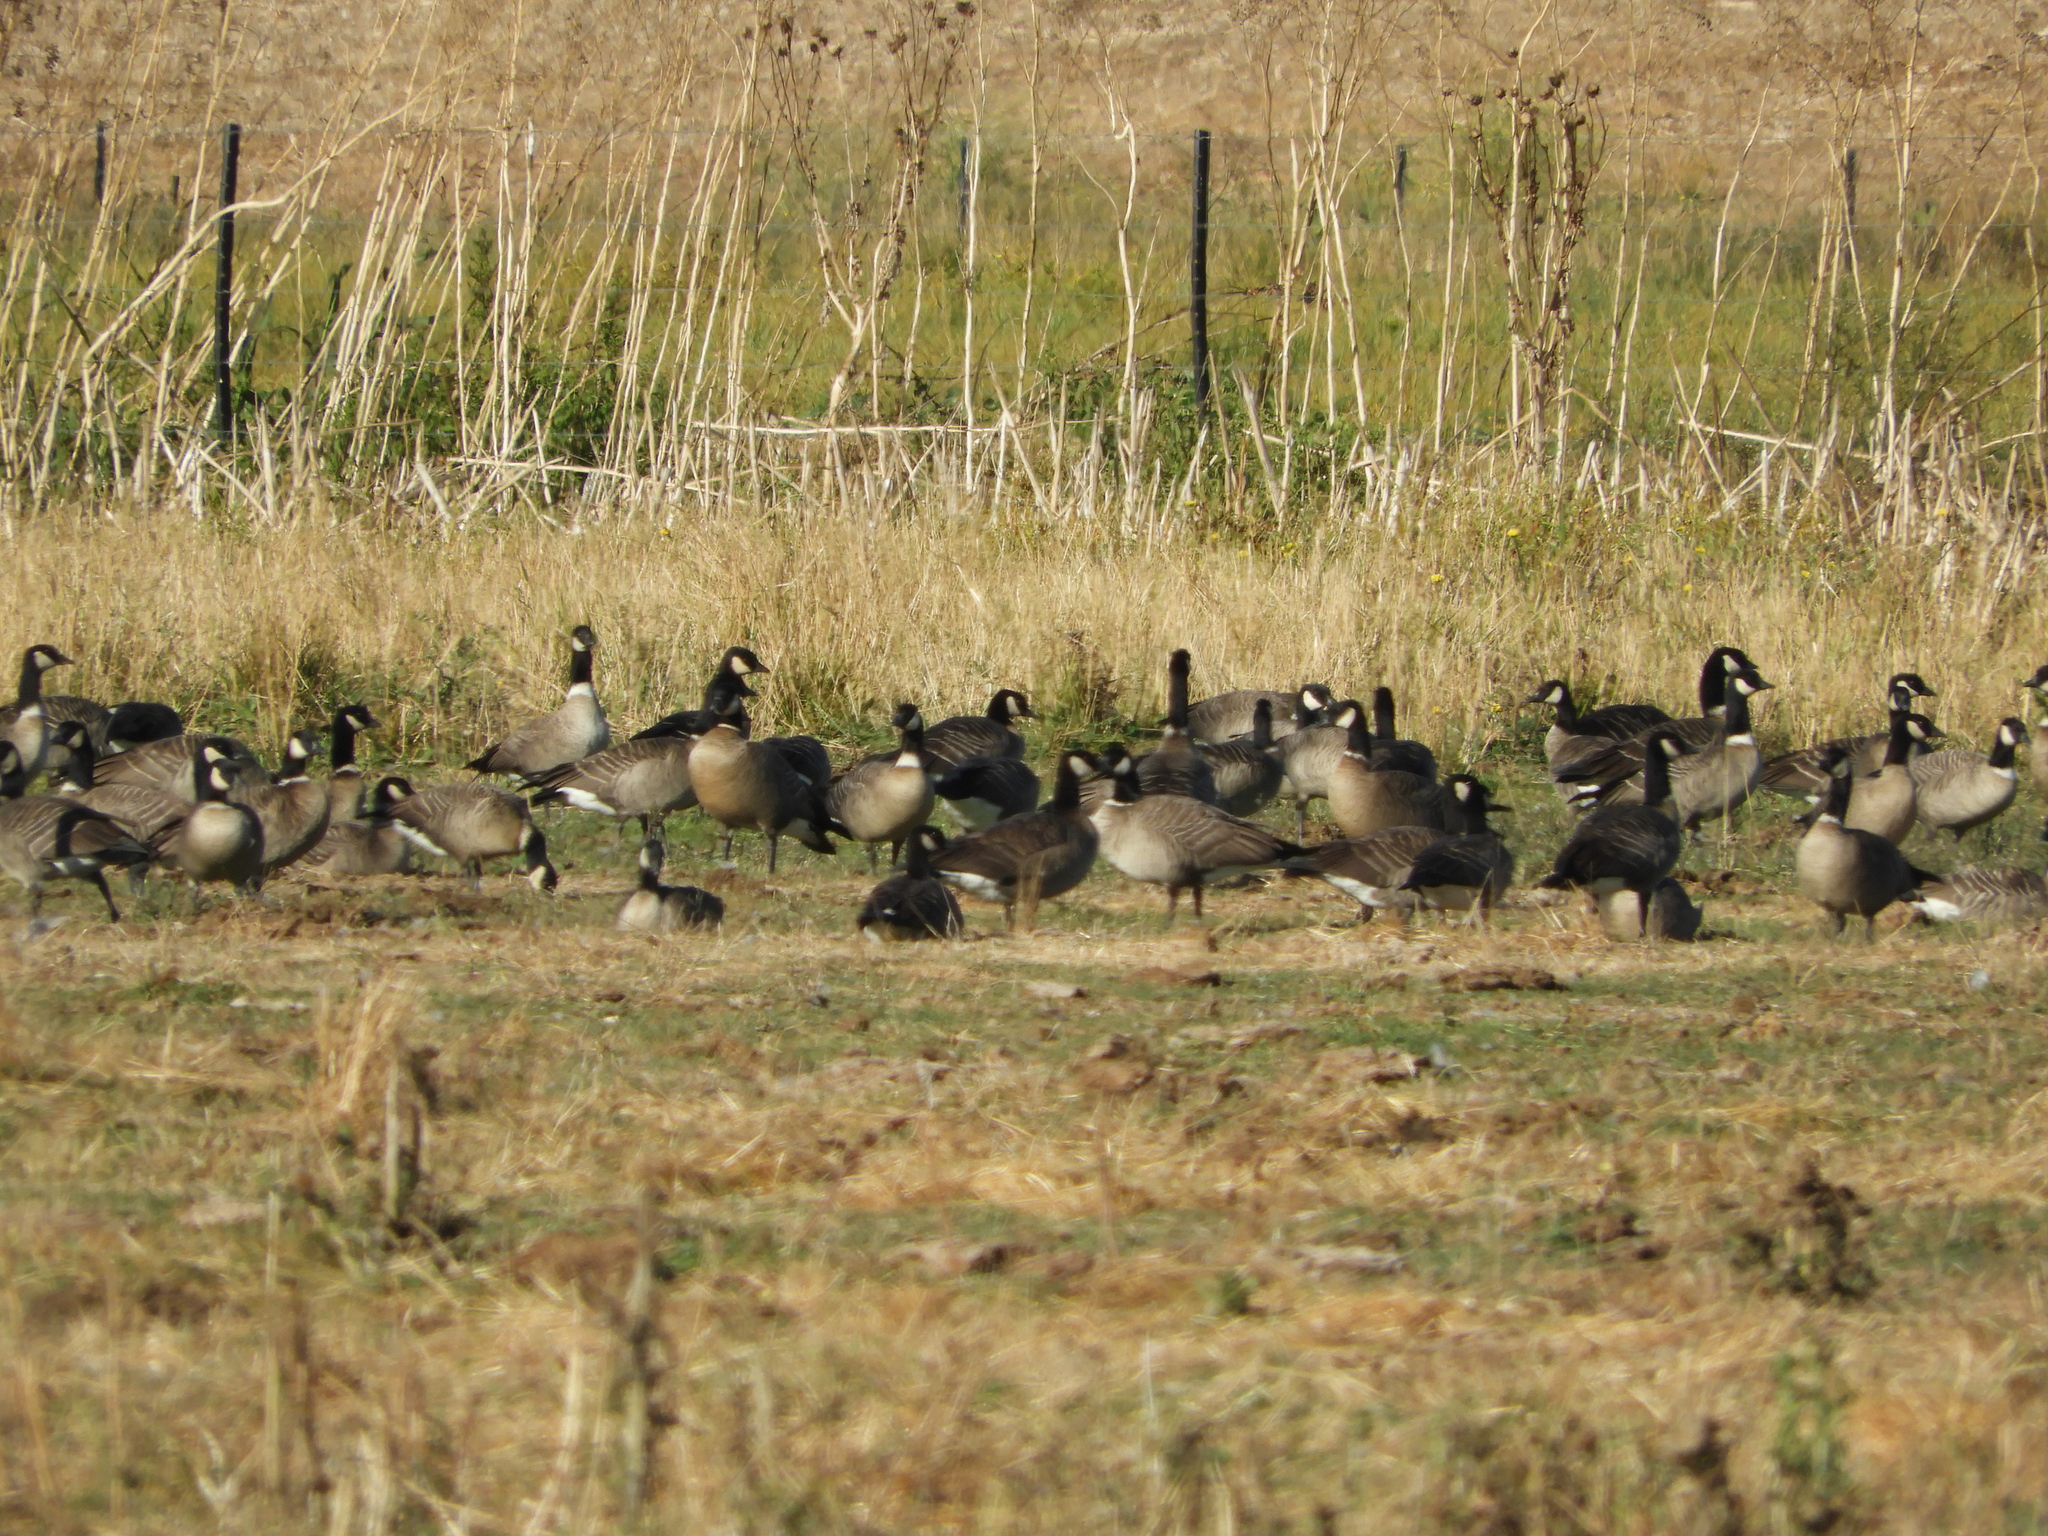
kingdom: Animalia
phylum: Chordata
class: Aves
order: Anseriformes
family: Anatidae
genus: Branta
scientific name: Branta hutchinsii
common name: Cackling goose
